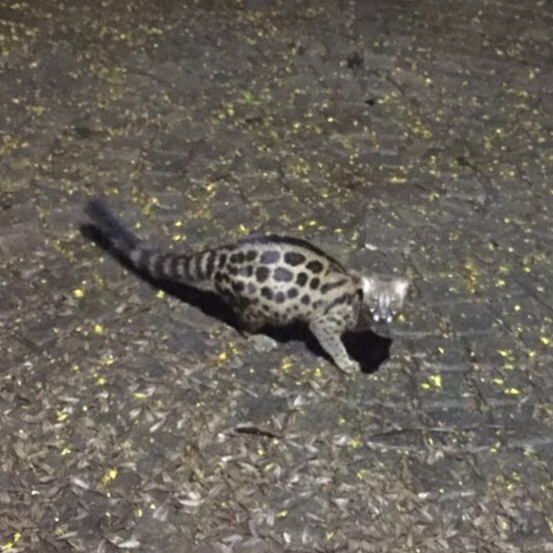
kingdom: Animalia
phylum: Chordata
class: Mammalia
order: Carnivora
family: Viverridae
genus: Genetta
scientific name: Genetta maculata
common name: Rusty-spotted genet
